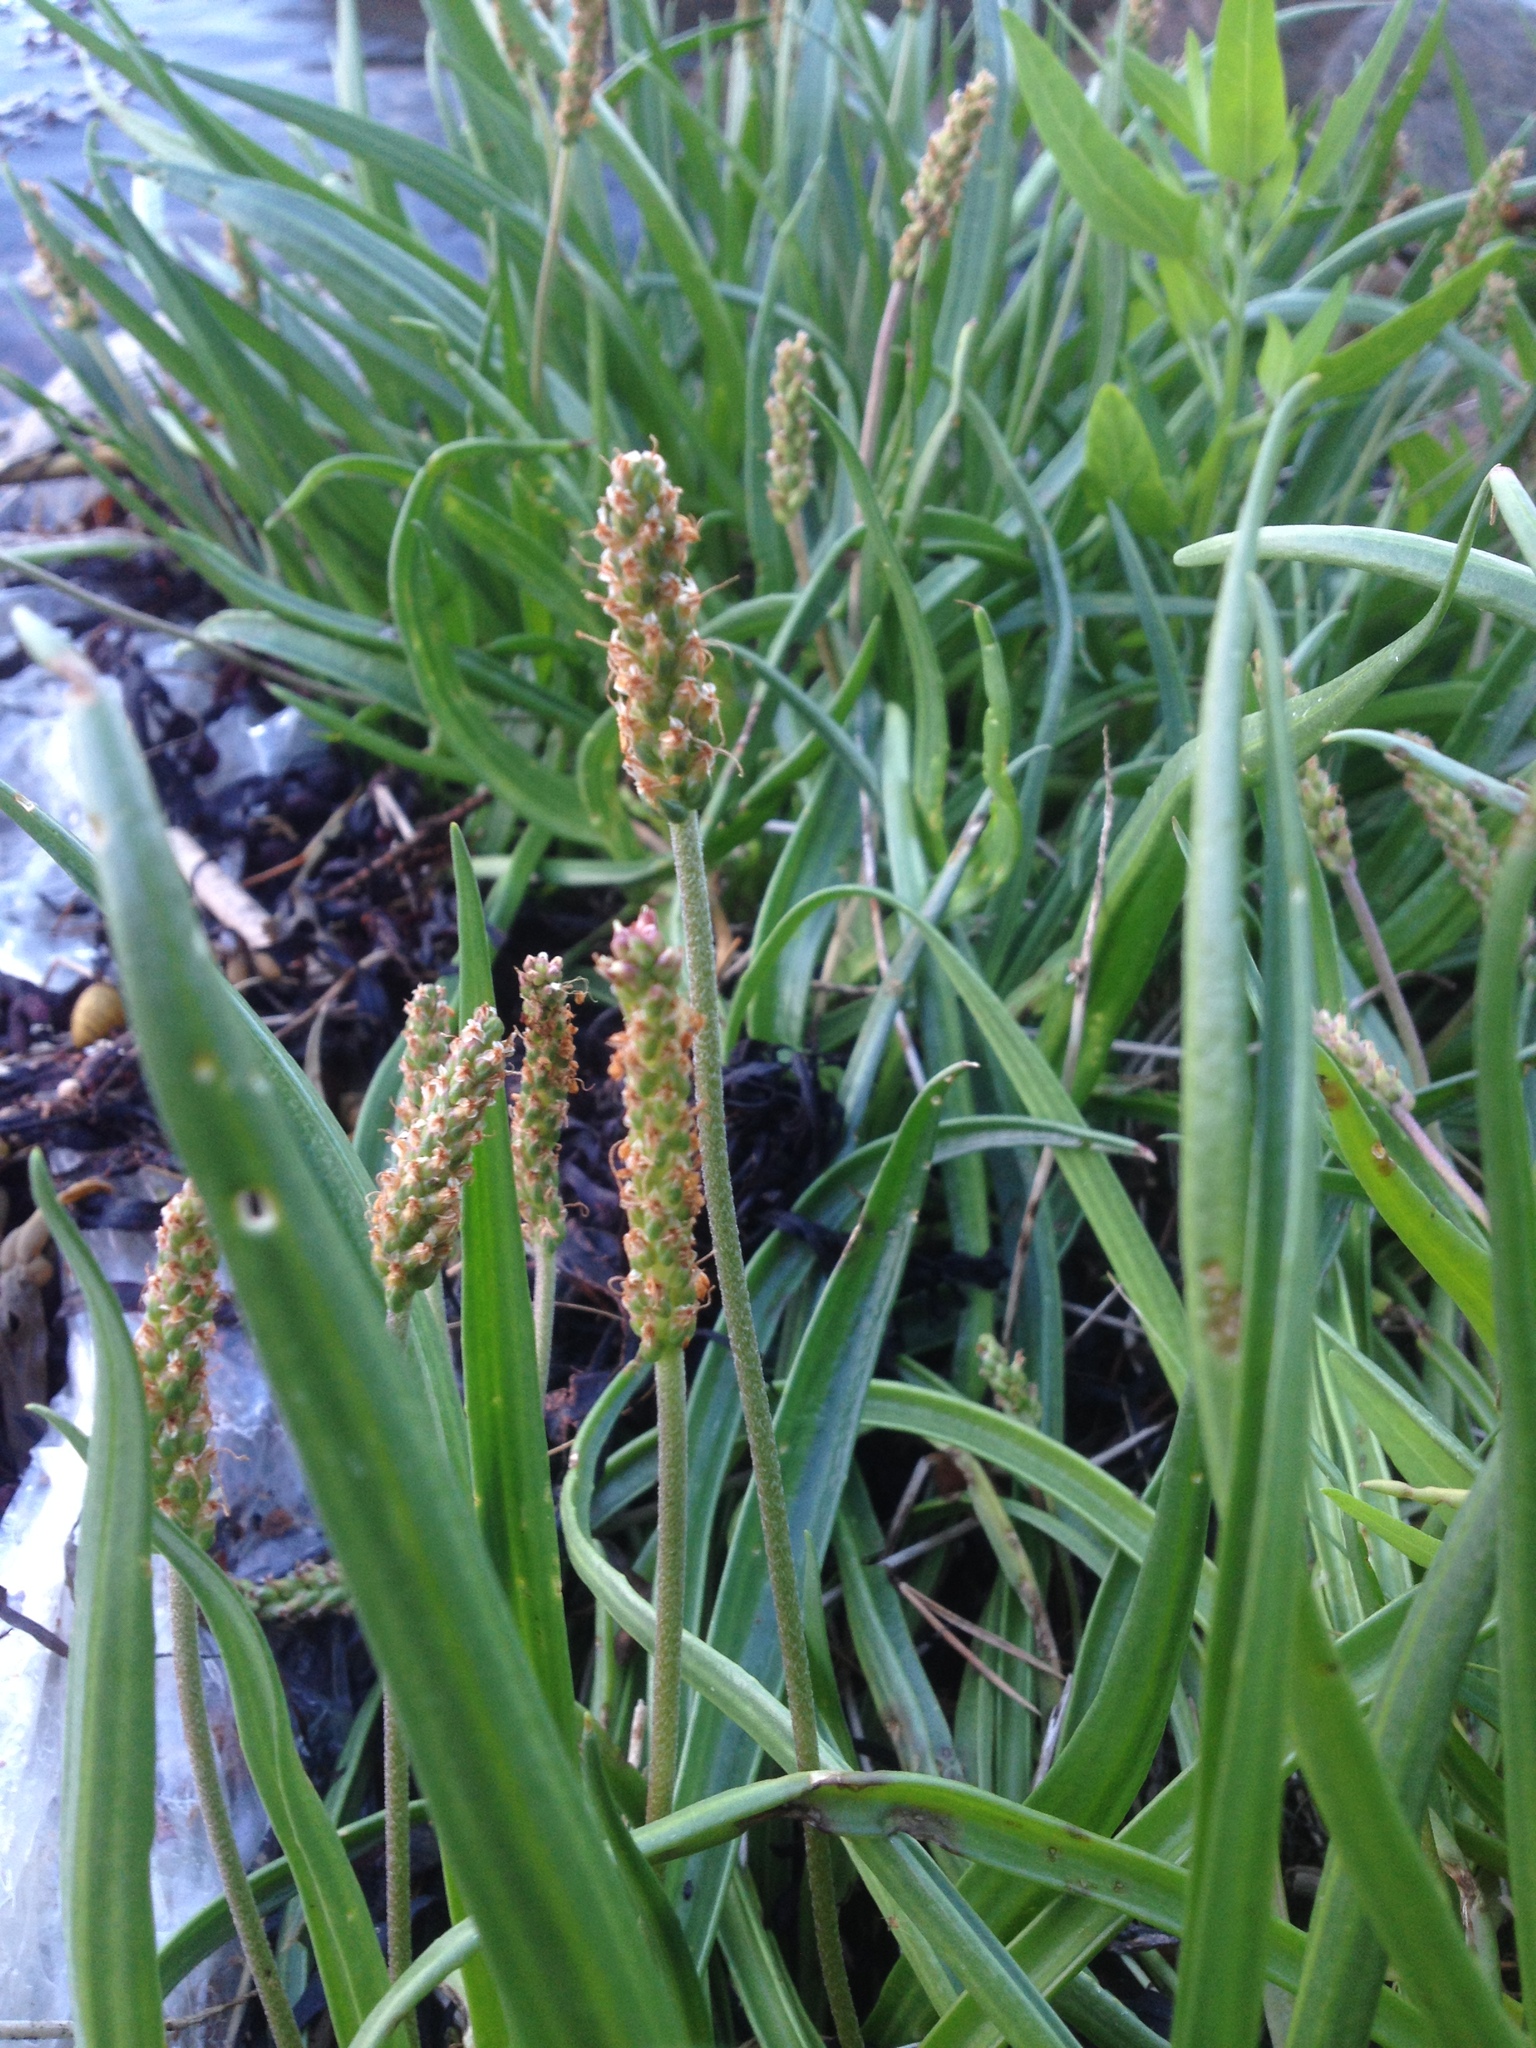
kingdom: Plantae
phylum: Tracheophyta
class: Magnoliopsida
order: Lamiales
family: Plantaginaceae
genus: Plantago
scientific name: Plantago maritima
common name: Sea plantain
